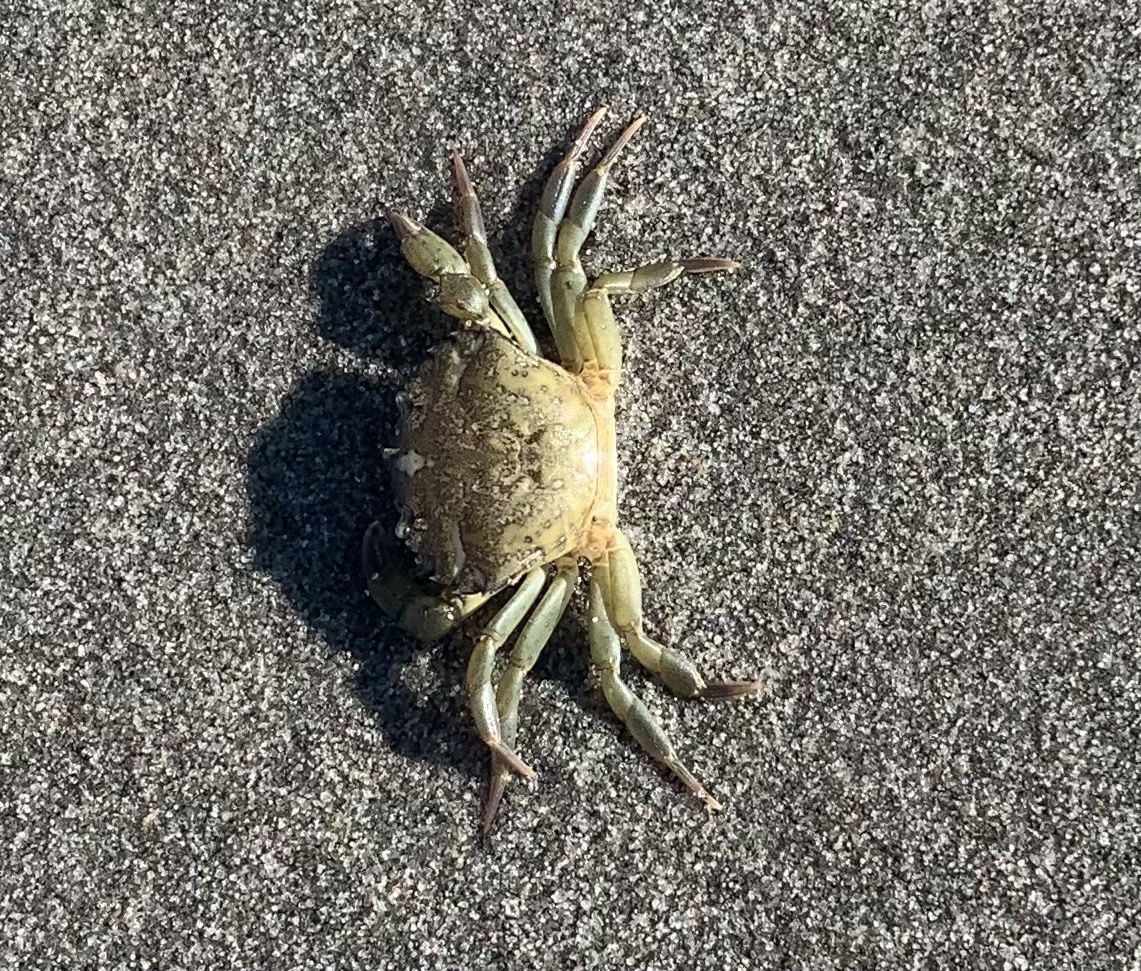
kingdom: Animalia
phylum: Arthropoda
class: Malacostraca
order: Decapoda
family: Carcinidae
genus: Carcinus
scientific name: Carcinus maenas
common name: European green crab
